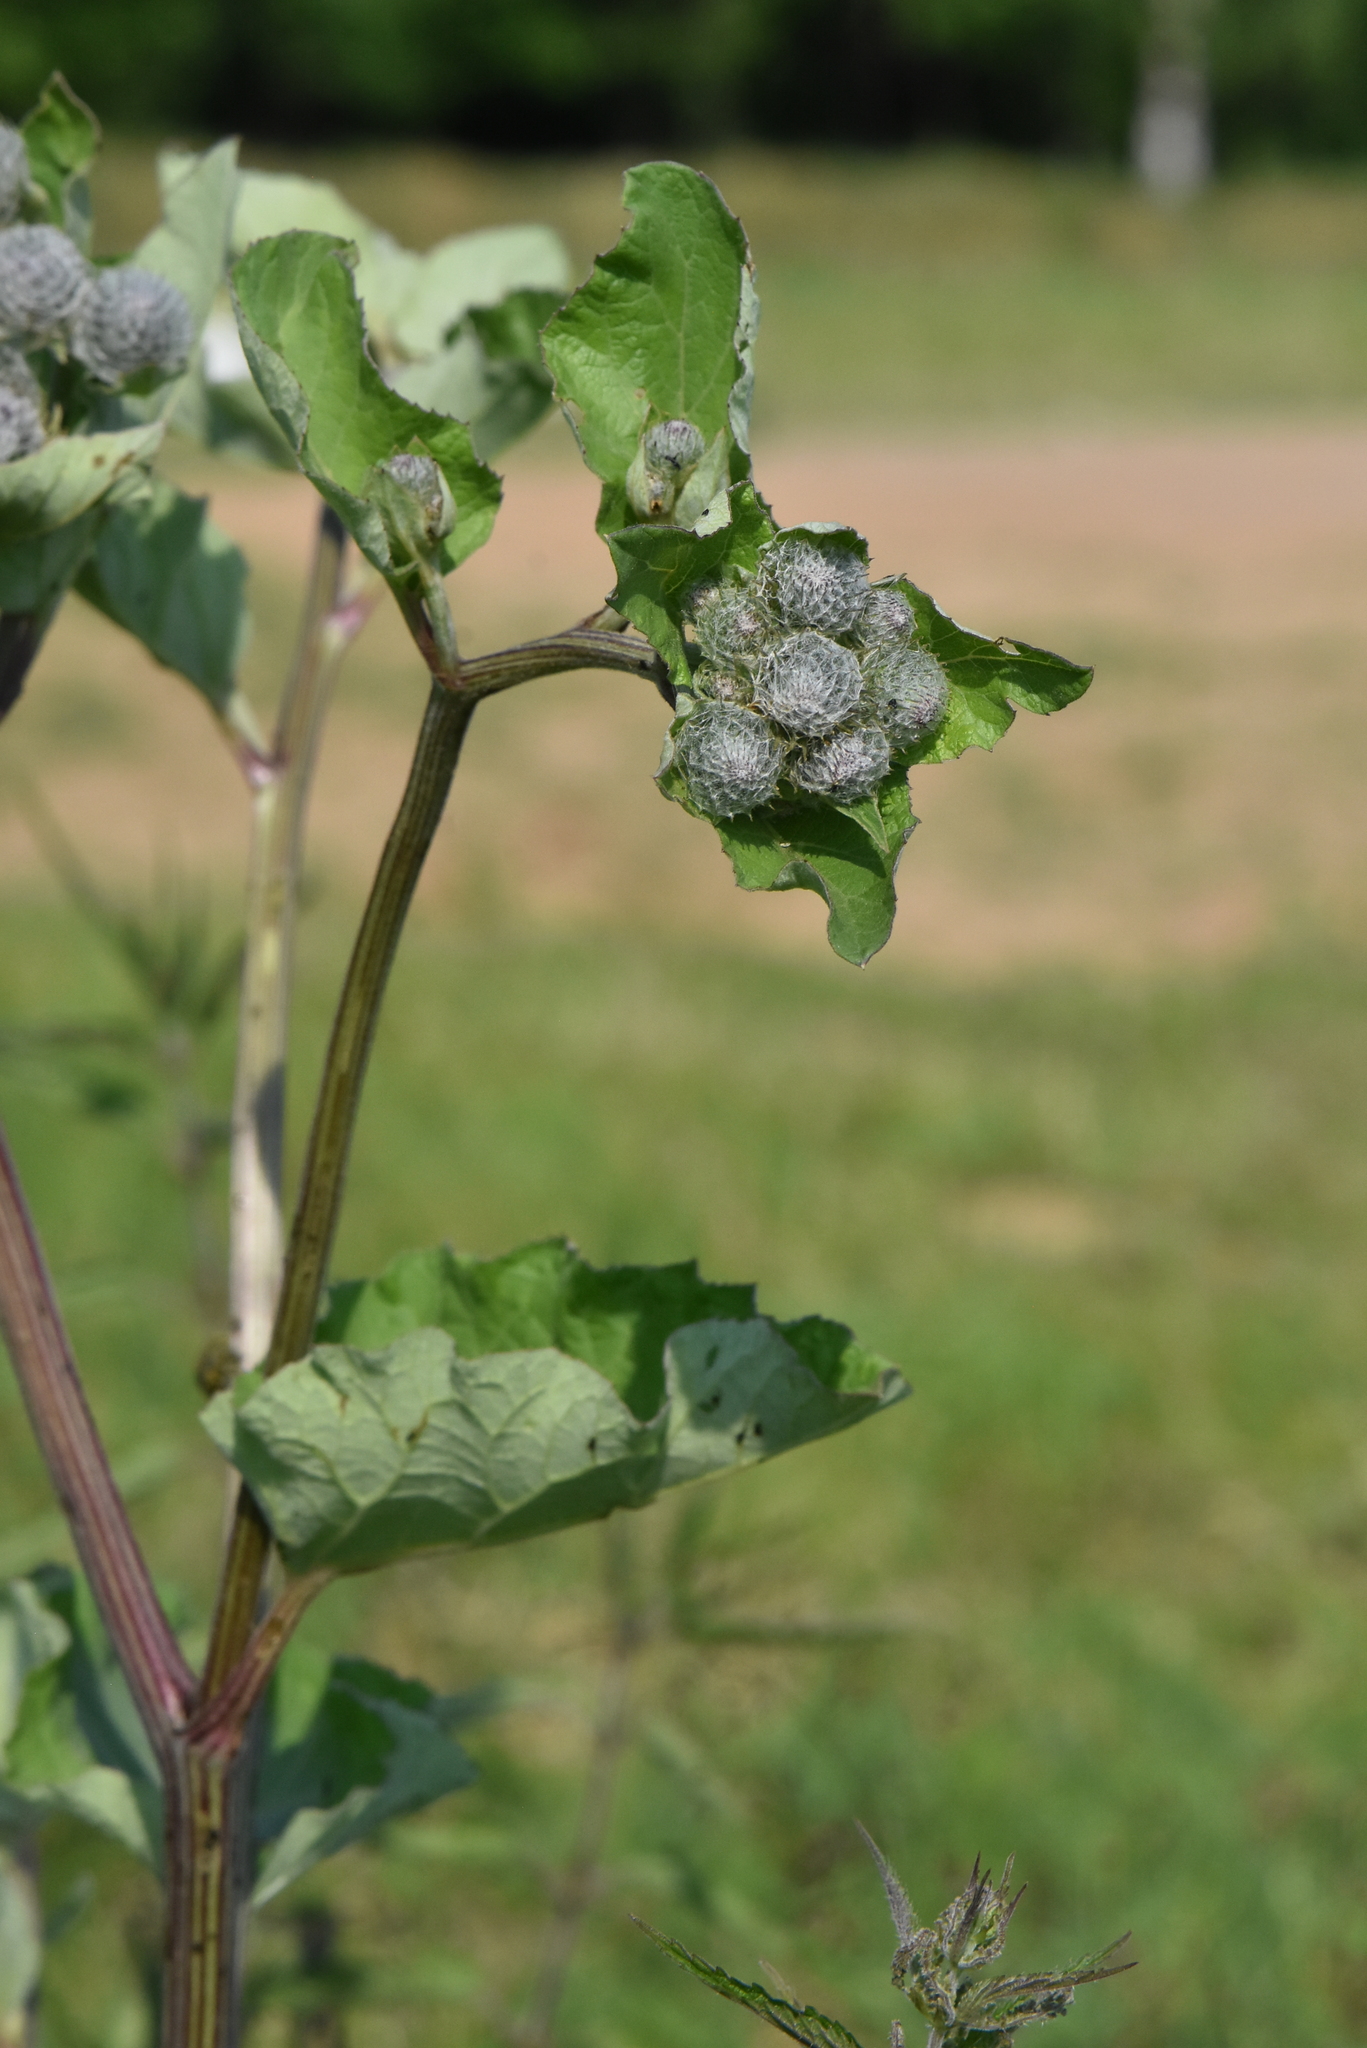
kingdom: Plantae
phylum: Tracheophyta
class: Magnoliopsida
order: Asterales
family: Asteraceae
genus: Arctium
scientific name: Arctium tomentosum
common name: Woolly burdock
